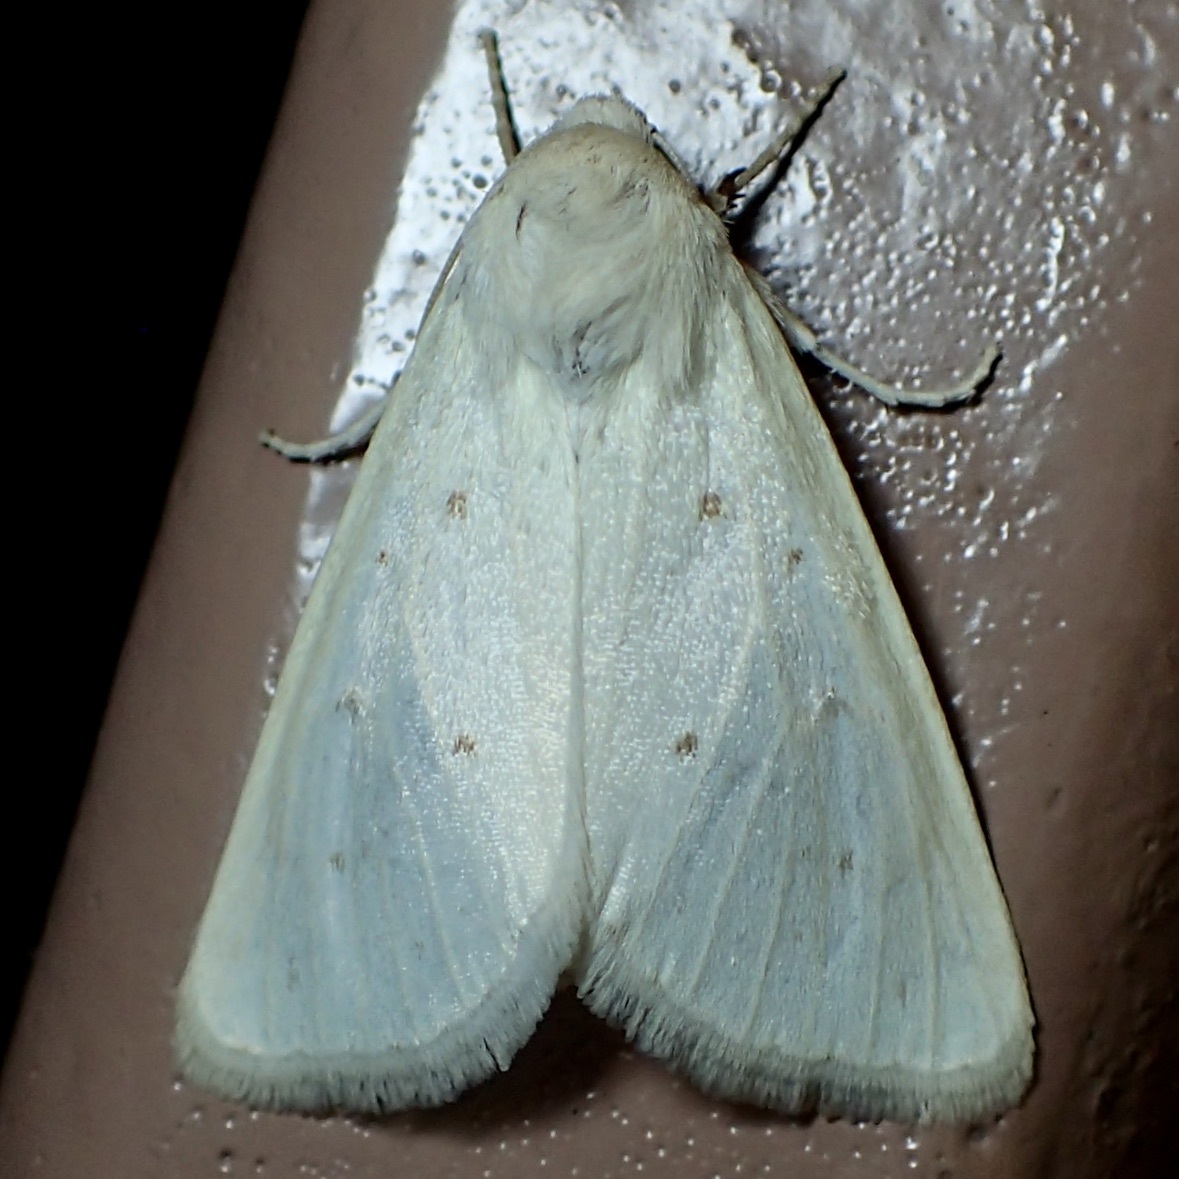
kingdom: Animalia
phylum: Arthropoda
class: Insecta
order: Lepidoptera
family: Noctuidae
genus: Schinia
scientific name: Schinia luxa
